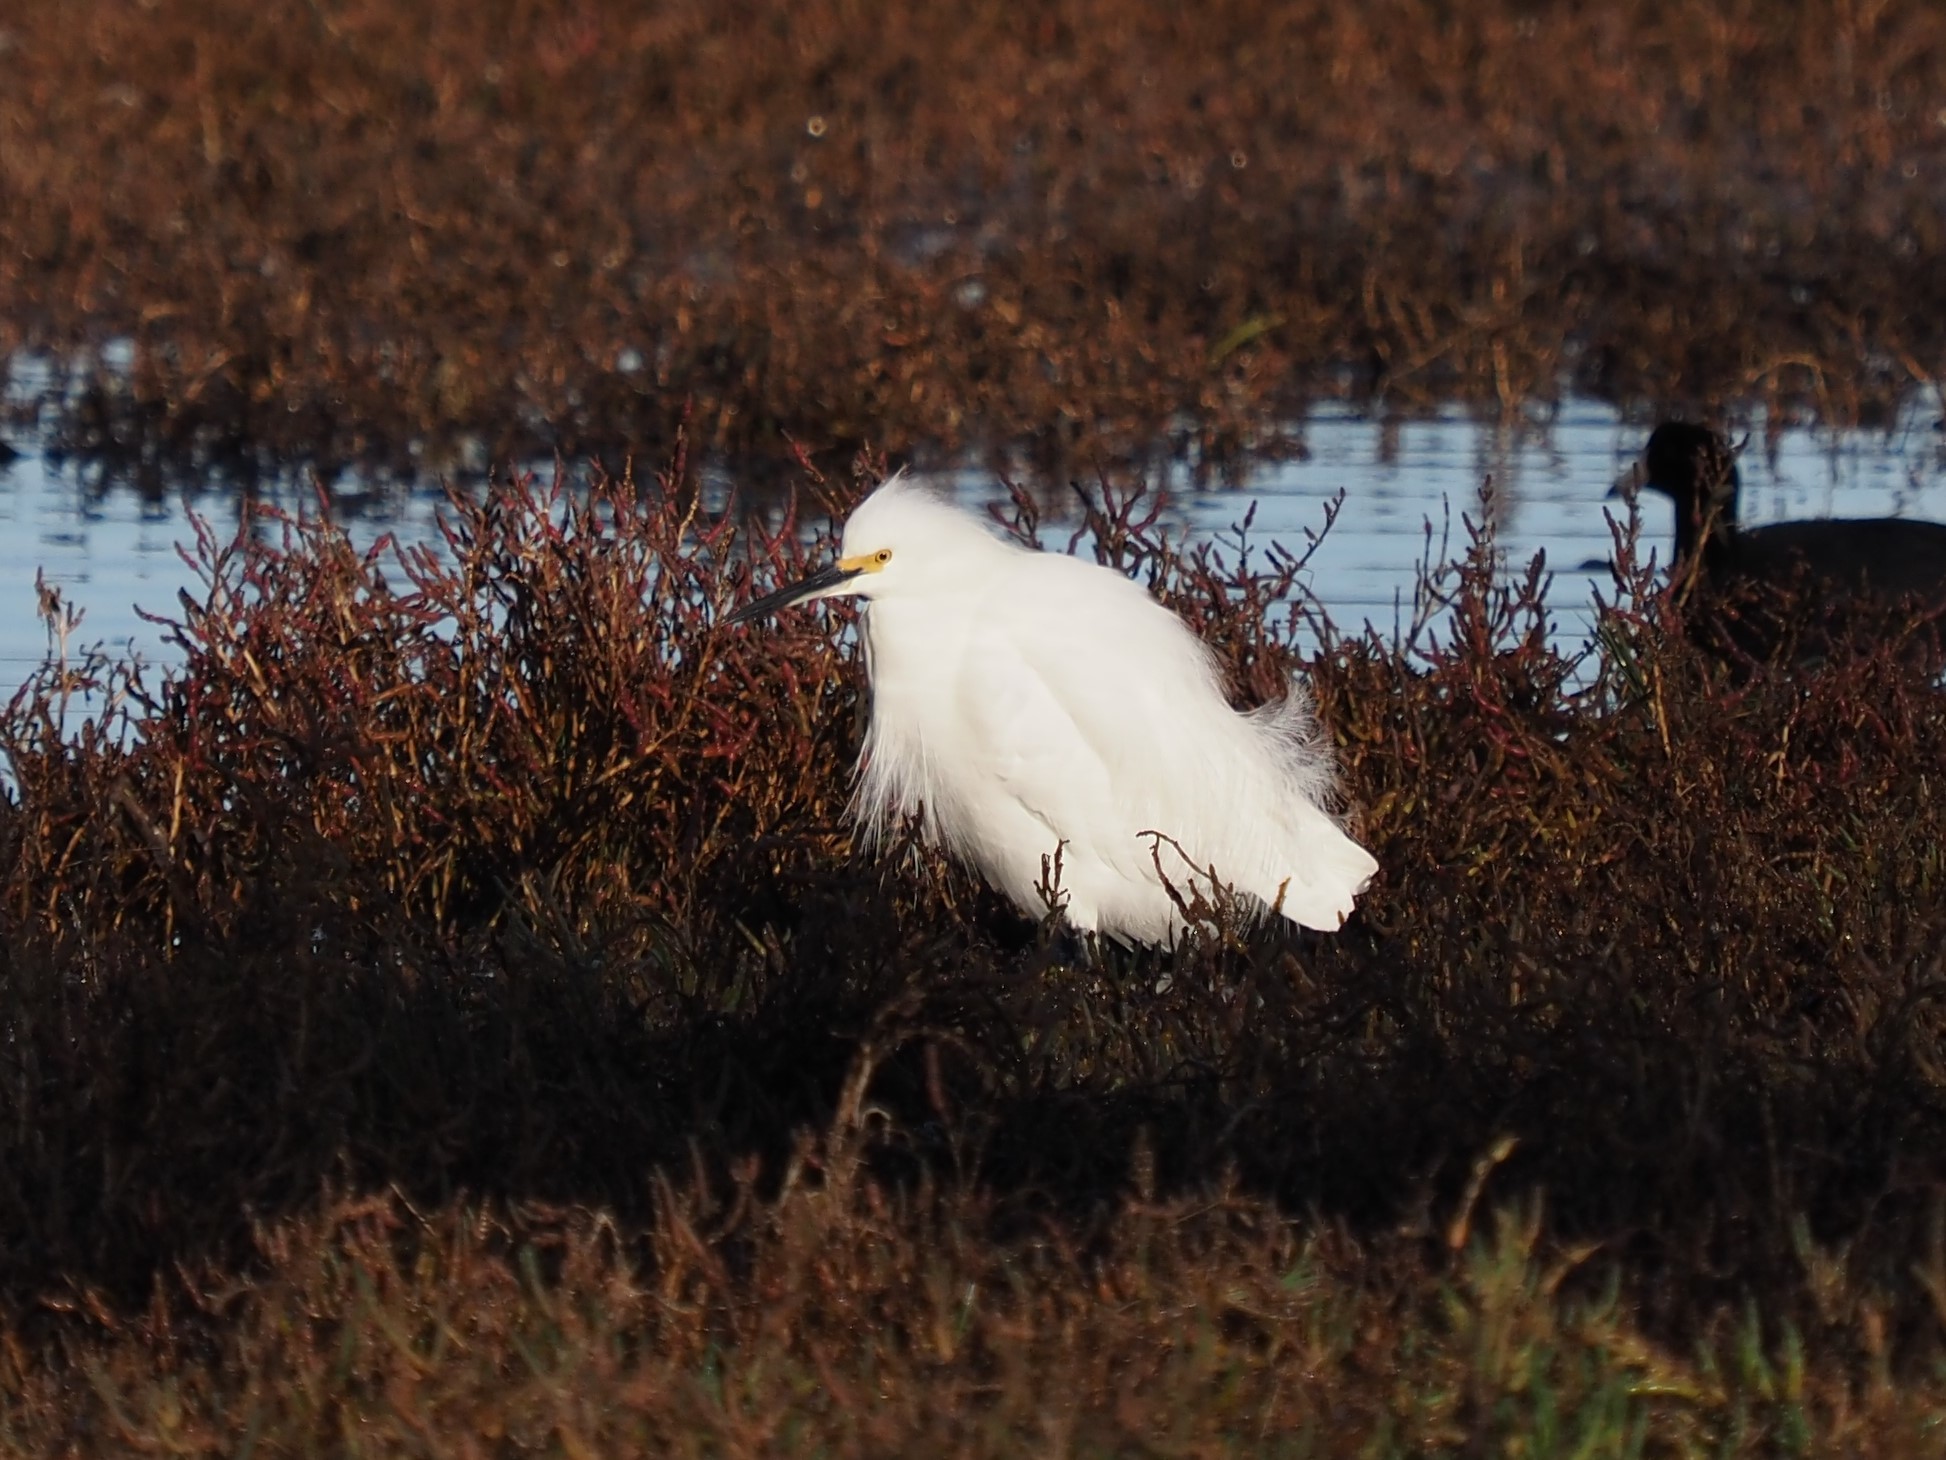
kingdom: Animalia
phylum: Chordata
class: Aves
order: Pelecaniformes
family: Ardeidae
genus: Egretta
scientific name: Egretta thula
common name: Snowy egret
